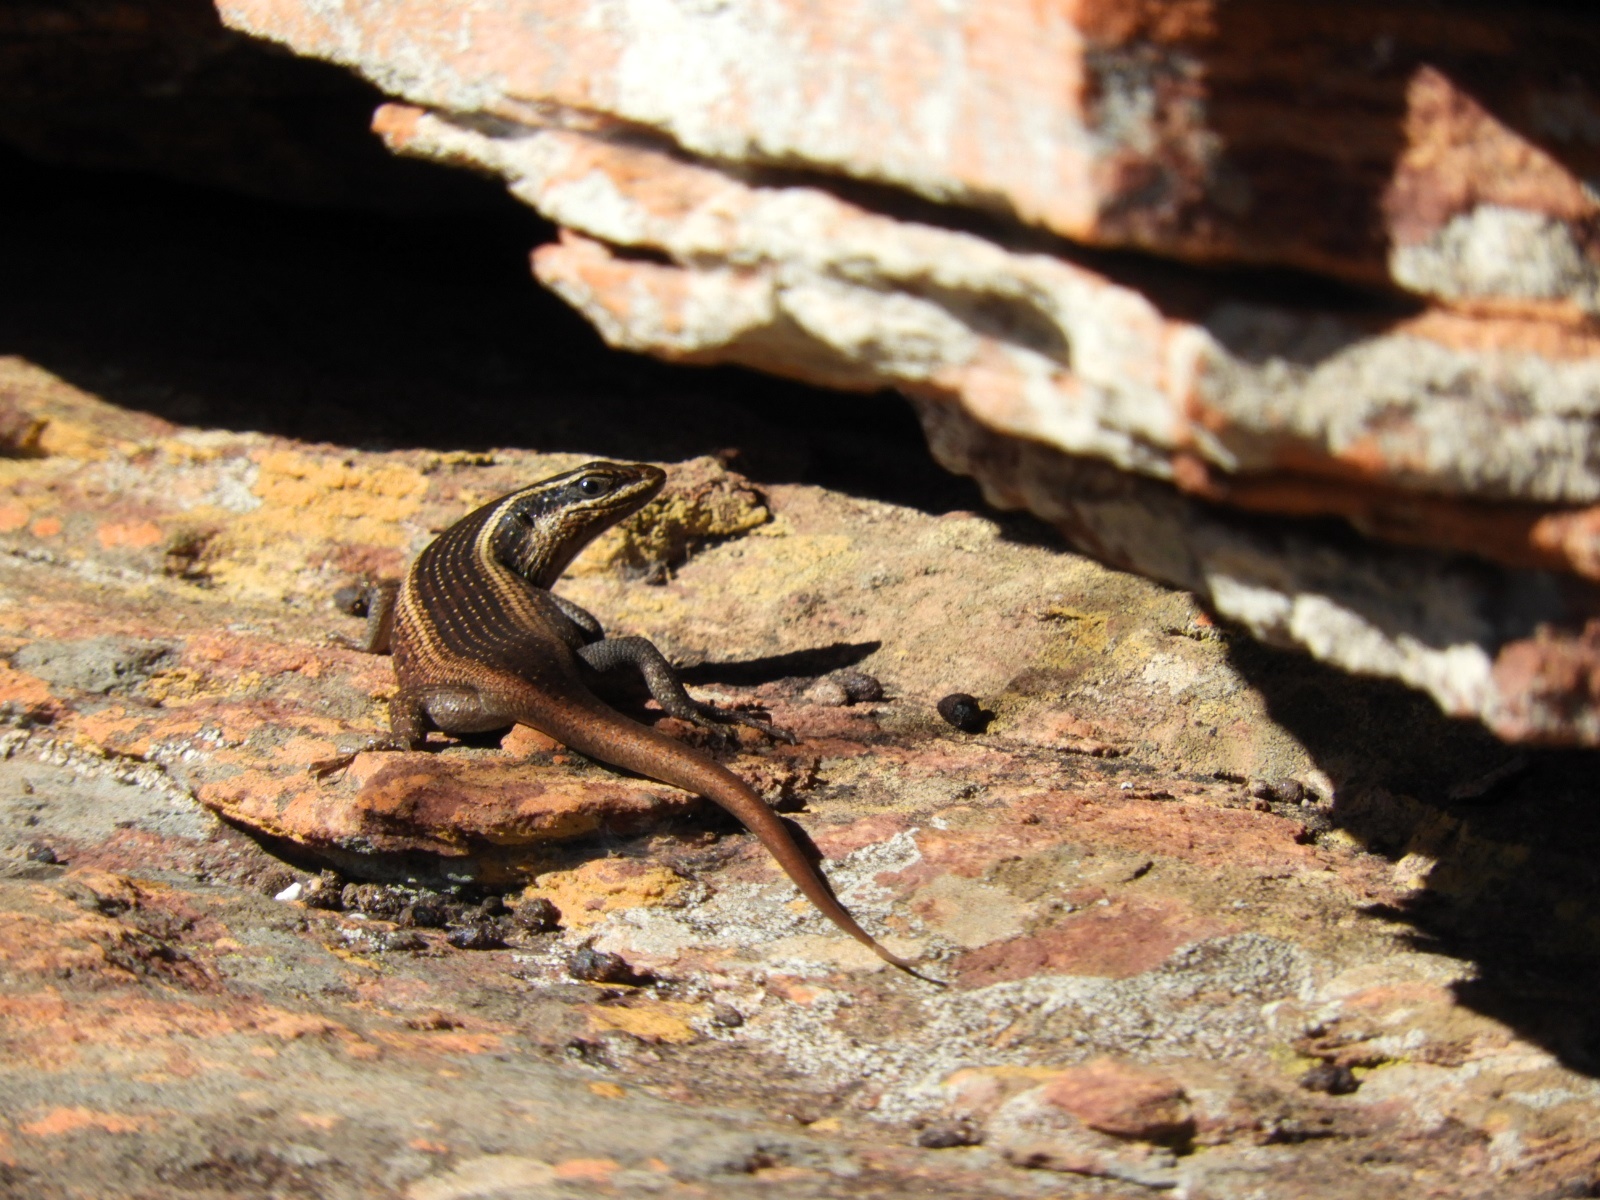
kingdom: Animalia
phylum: Chordata
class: Squamata
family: Scincidae
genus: Trachylepis
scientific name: Trachylepis punctatissima
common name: Montane speckled skink
